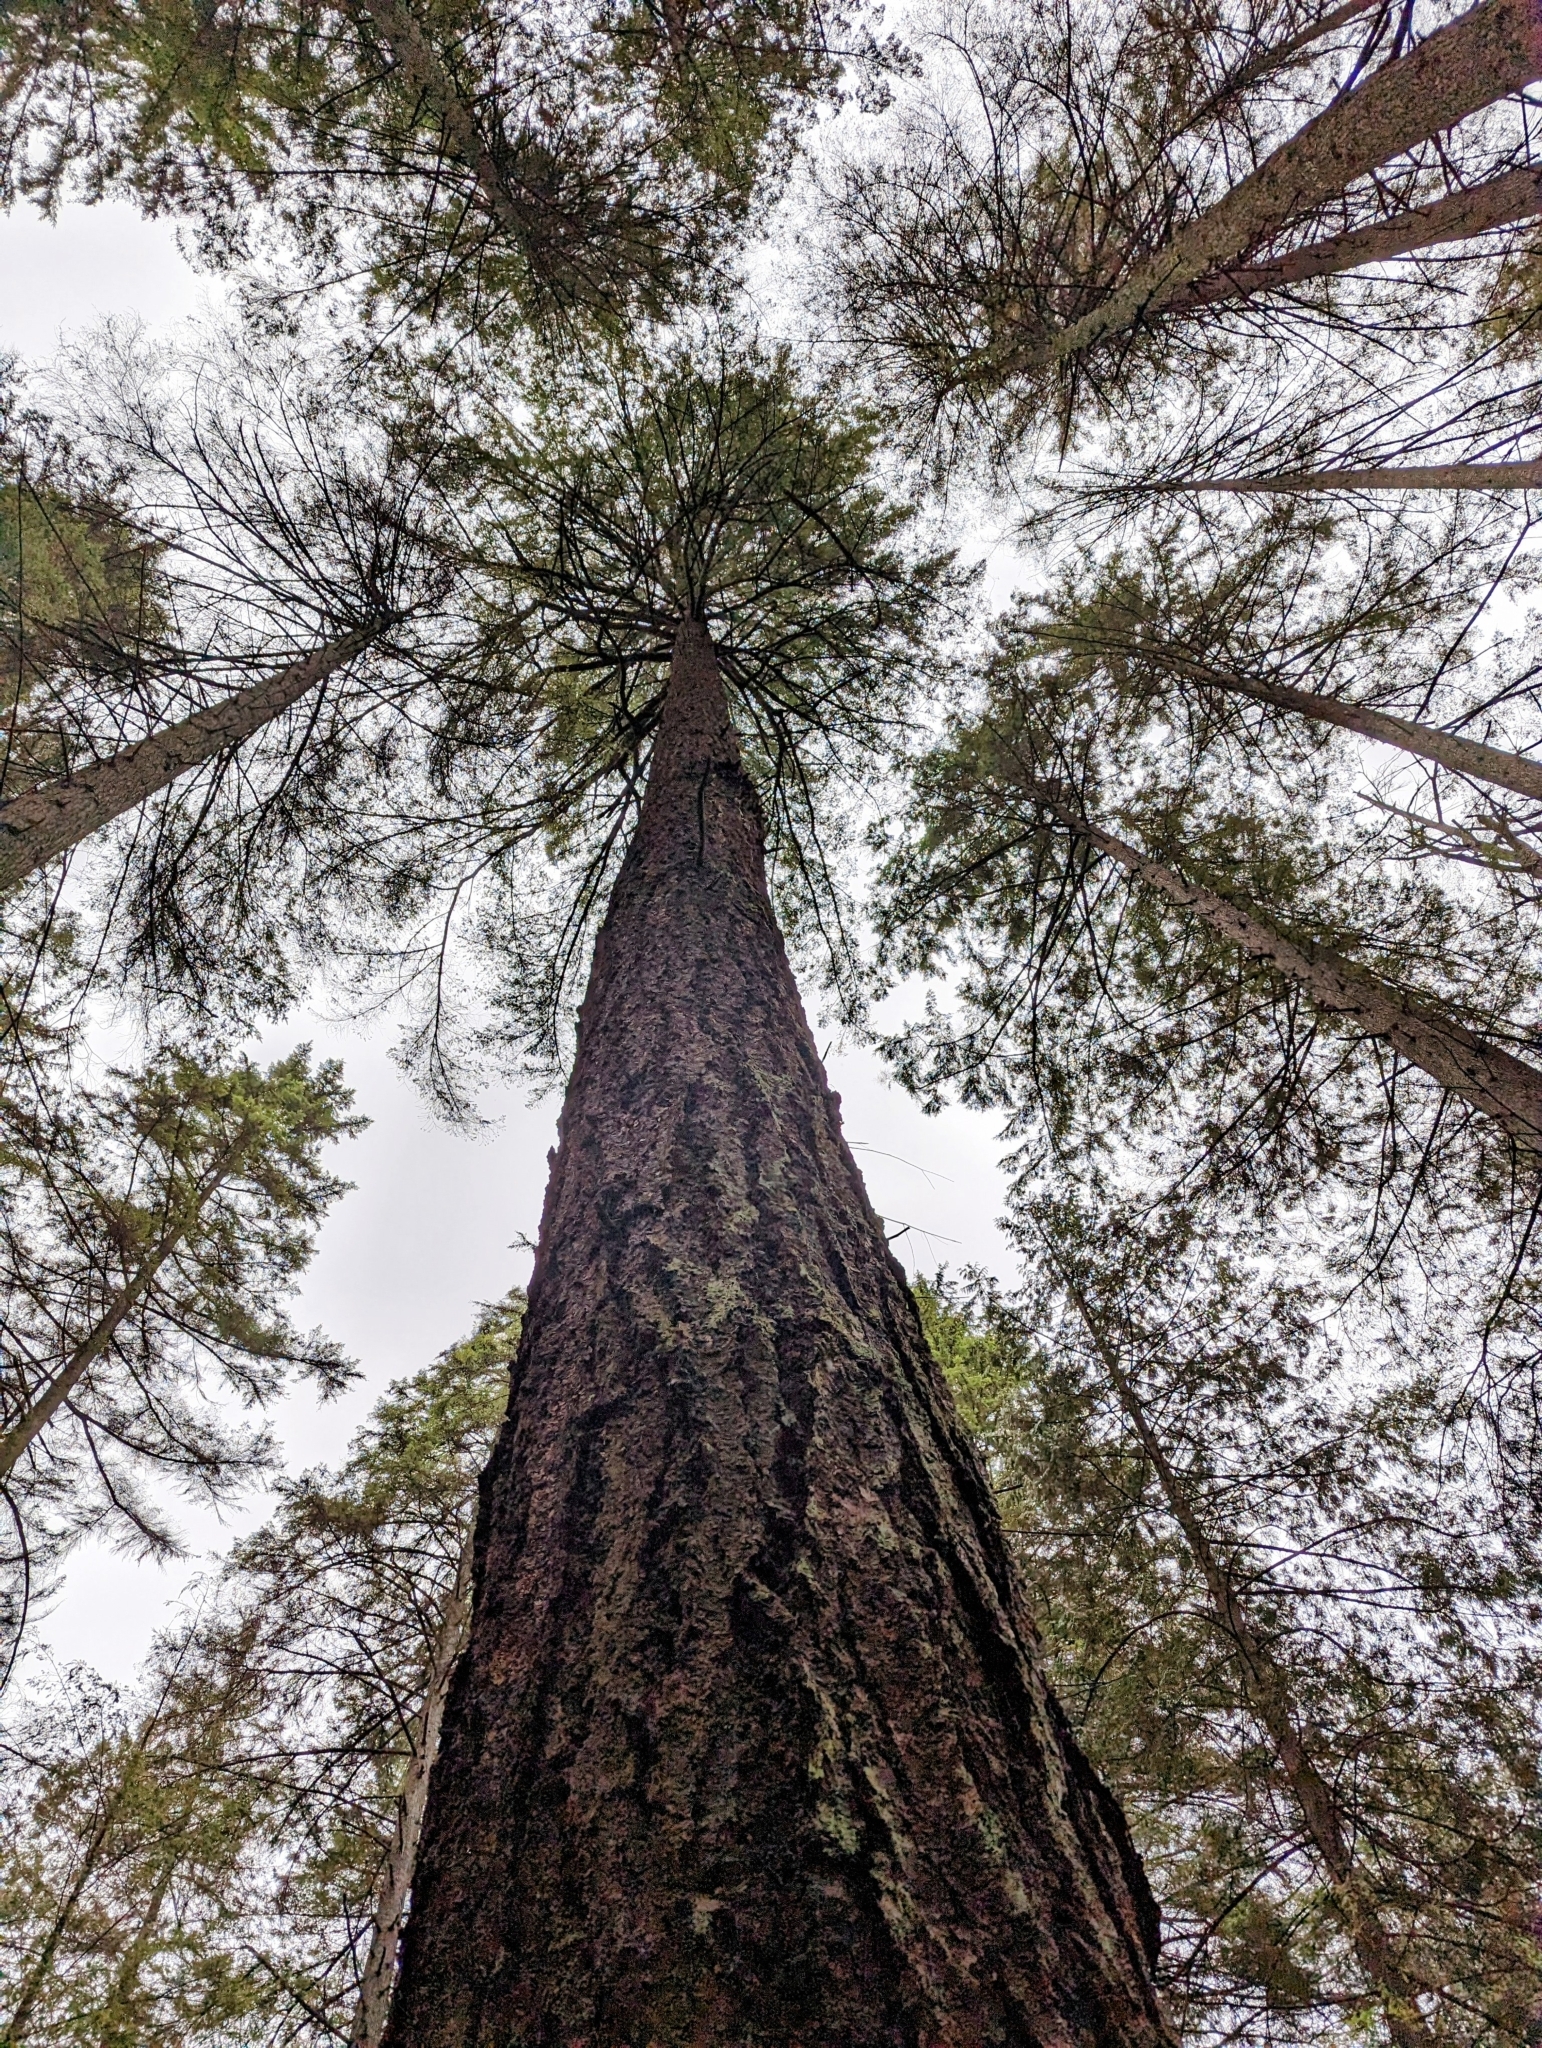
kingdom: Plantae
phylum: Tracheophyta
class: Pinopsida
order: Pinales
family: Pinaceae
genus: Pseudotsuga
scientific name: Pseudotsuga menziesii
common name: Douglas fir
